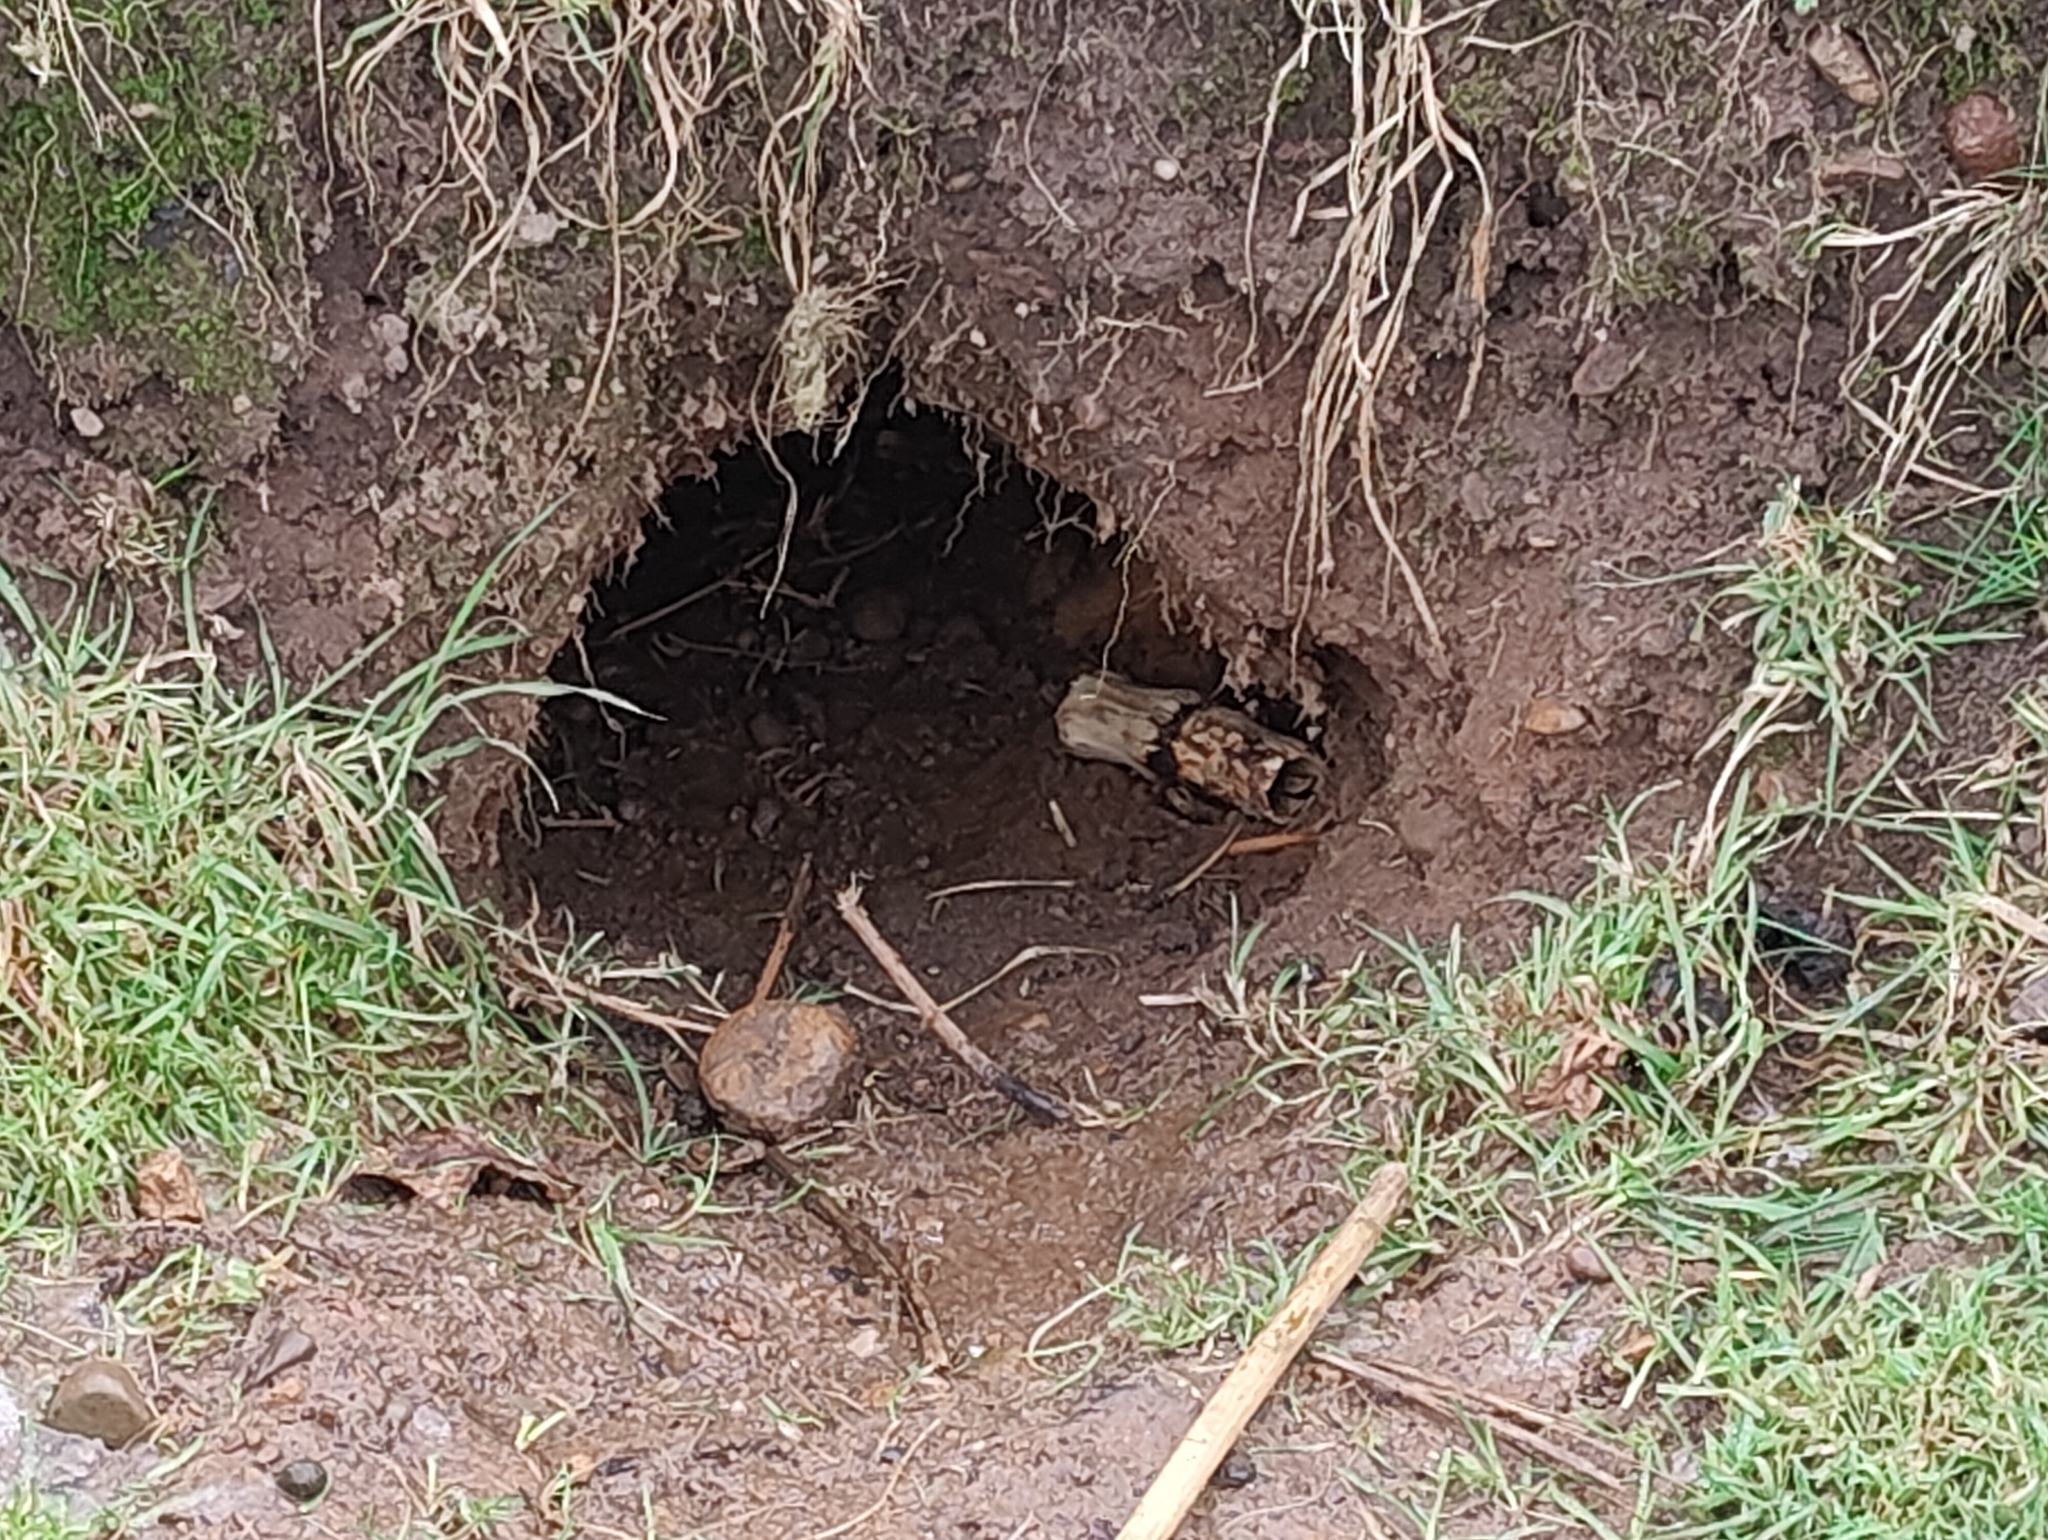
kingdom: Animalia
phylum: Chordata
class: Mammalia
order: Carnivora
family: Mustelidae
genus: Meles
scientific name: Meles meles
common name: Eurasian badger
